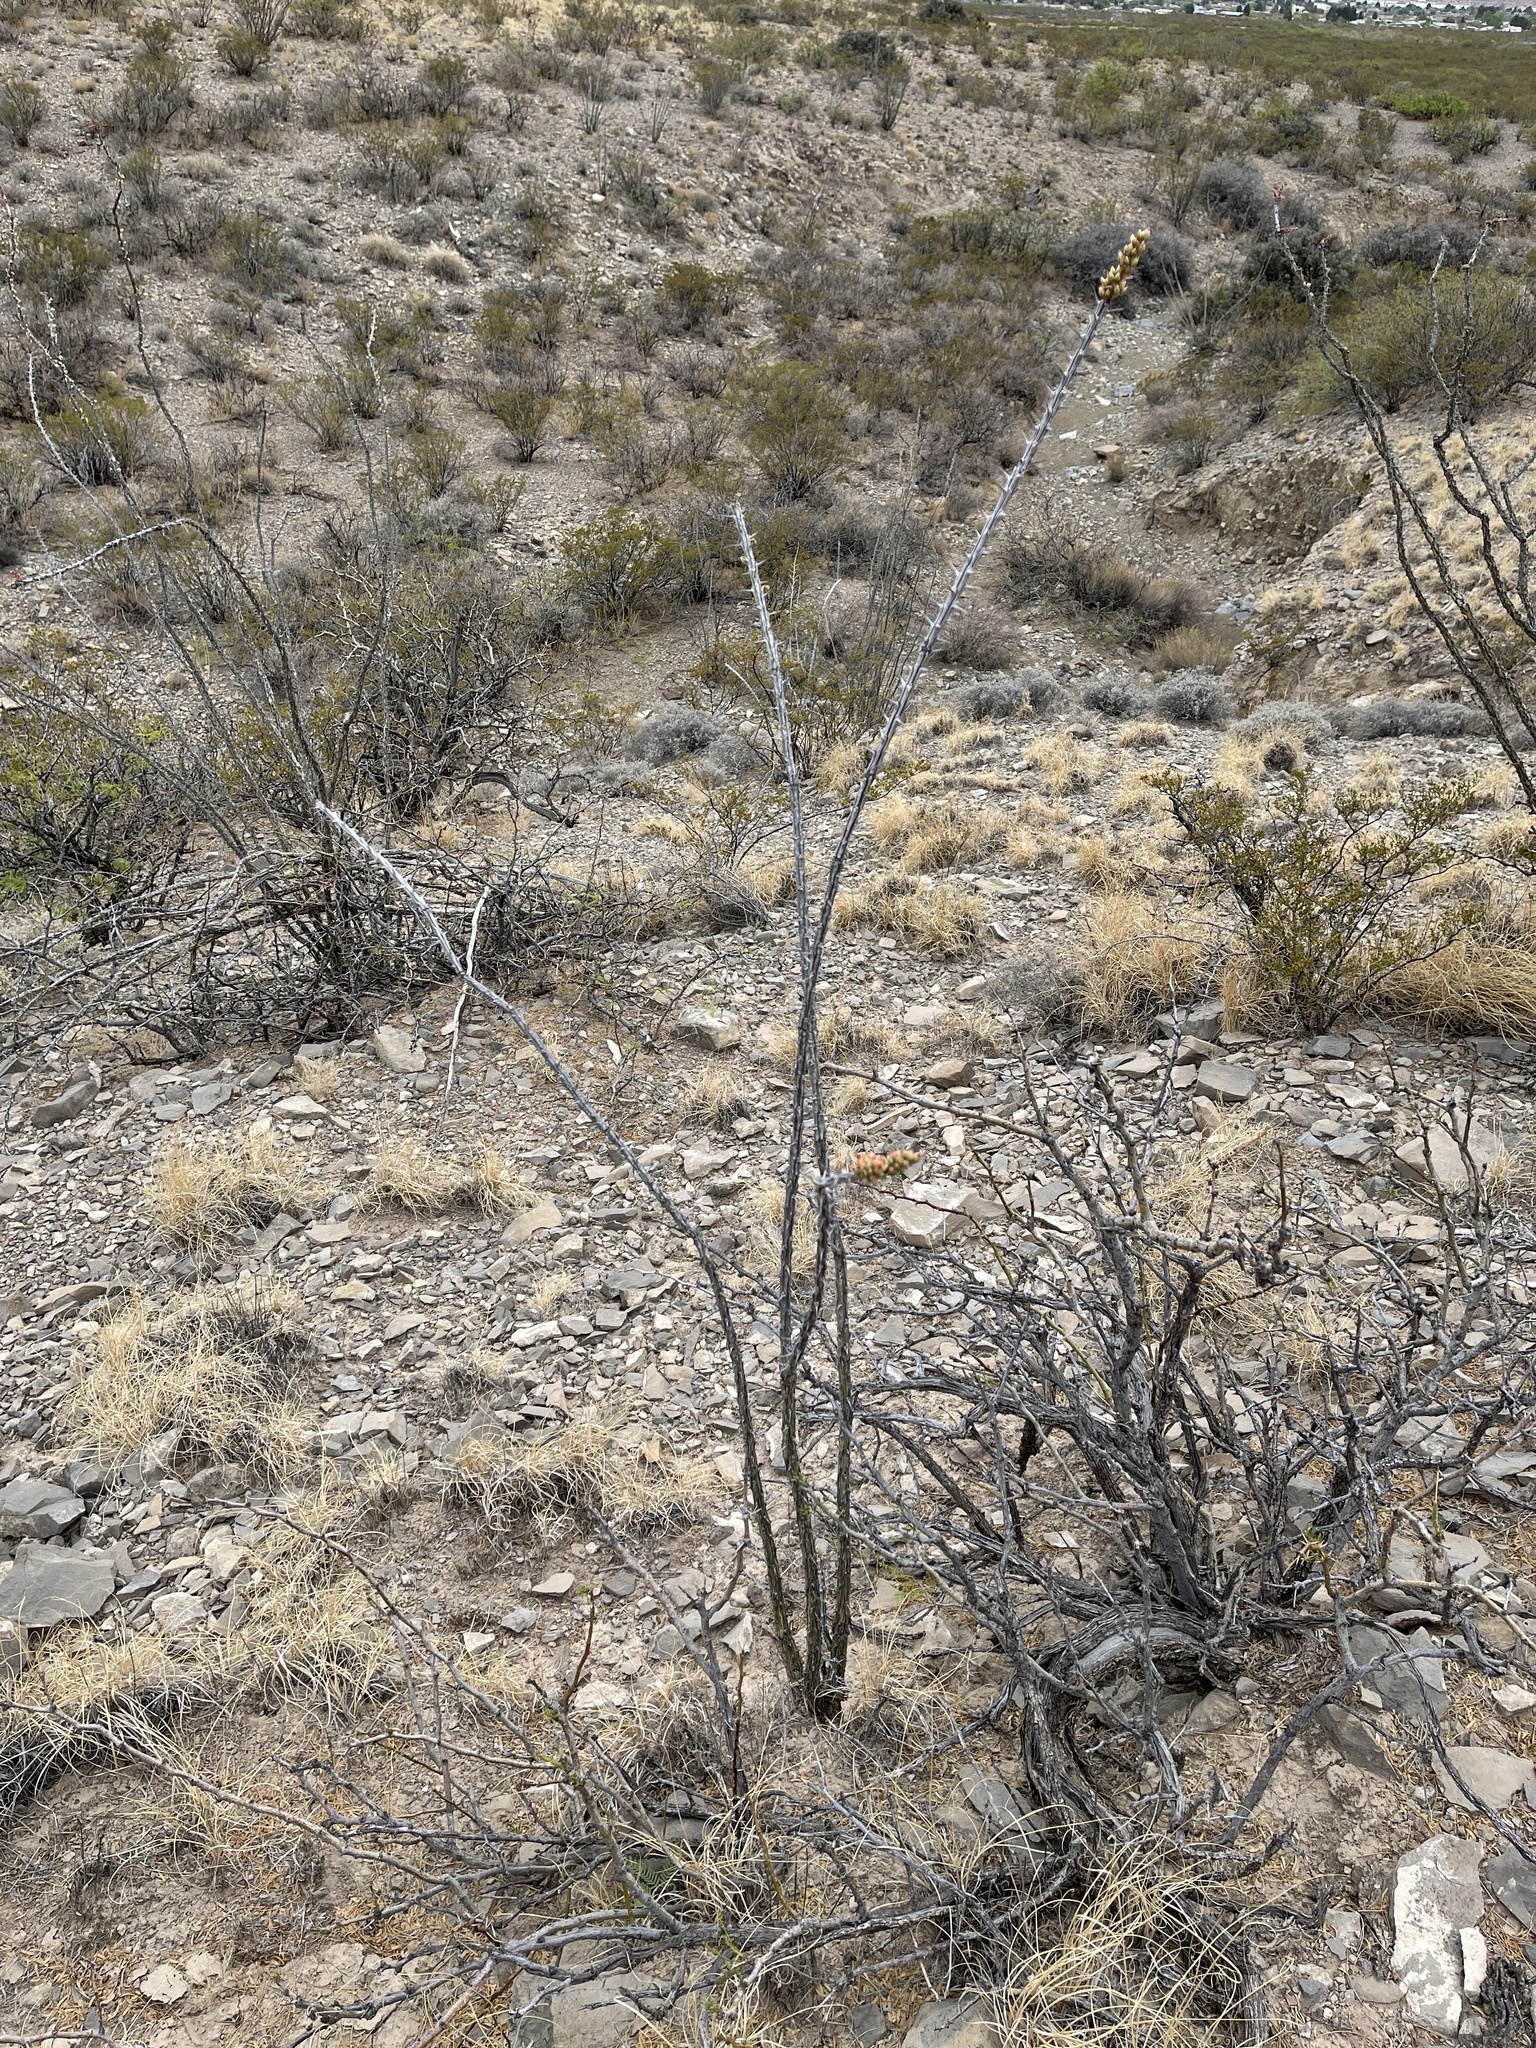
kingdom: Plantae
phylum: Tracheophyta
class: Magnoliopsida
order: Ericales
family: Fouquieriaceae
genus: Fouquieria
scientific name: Fouquieria splendens
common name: Vine-cactus
